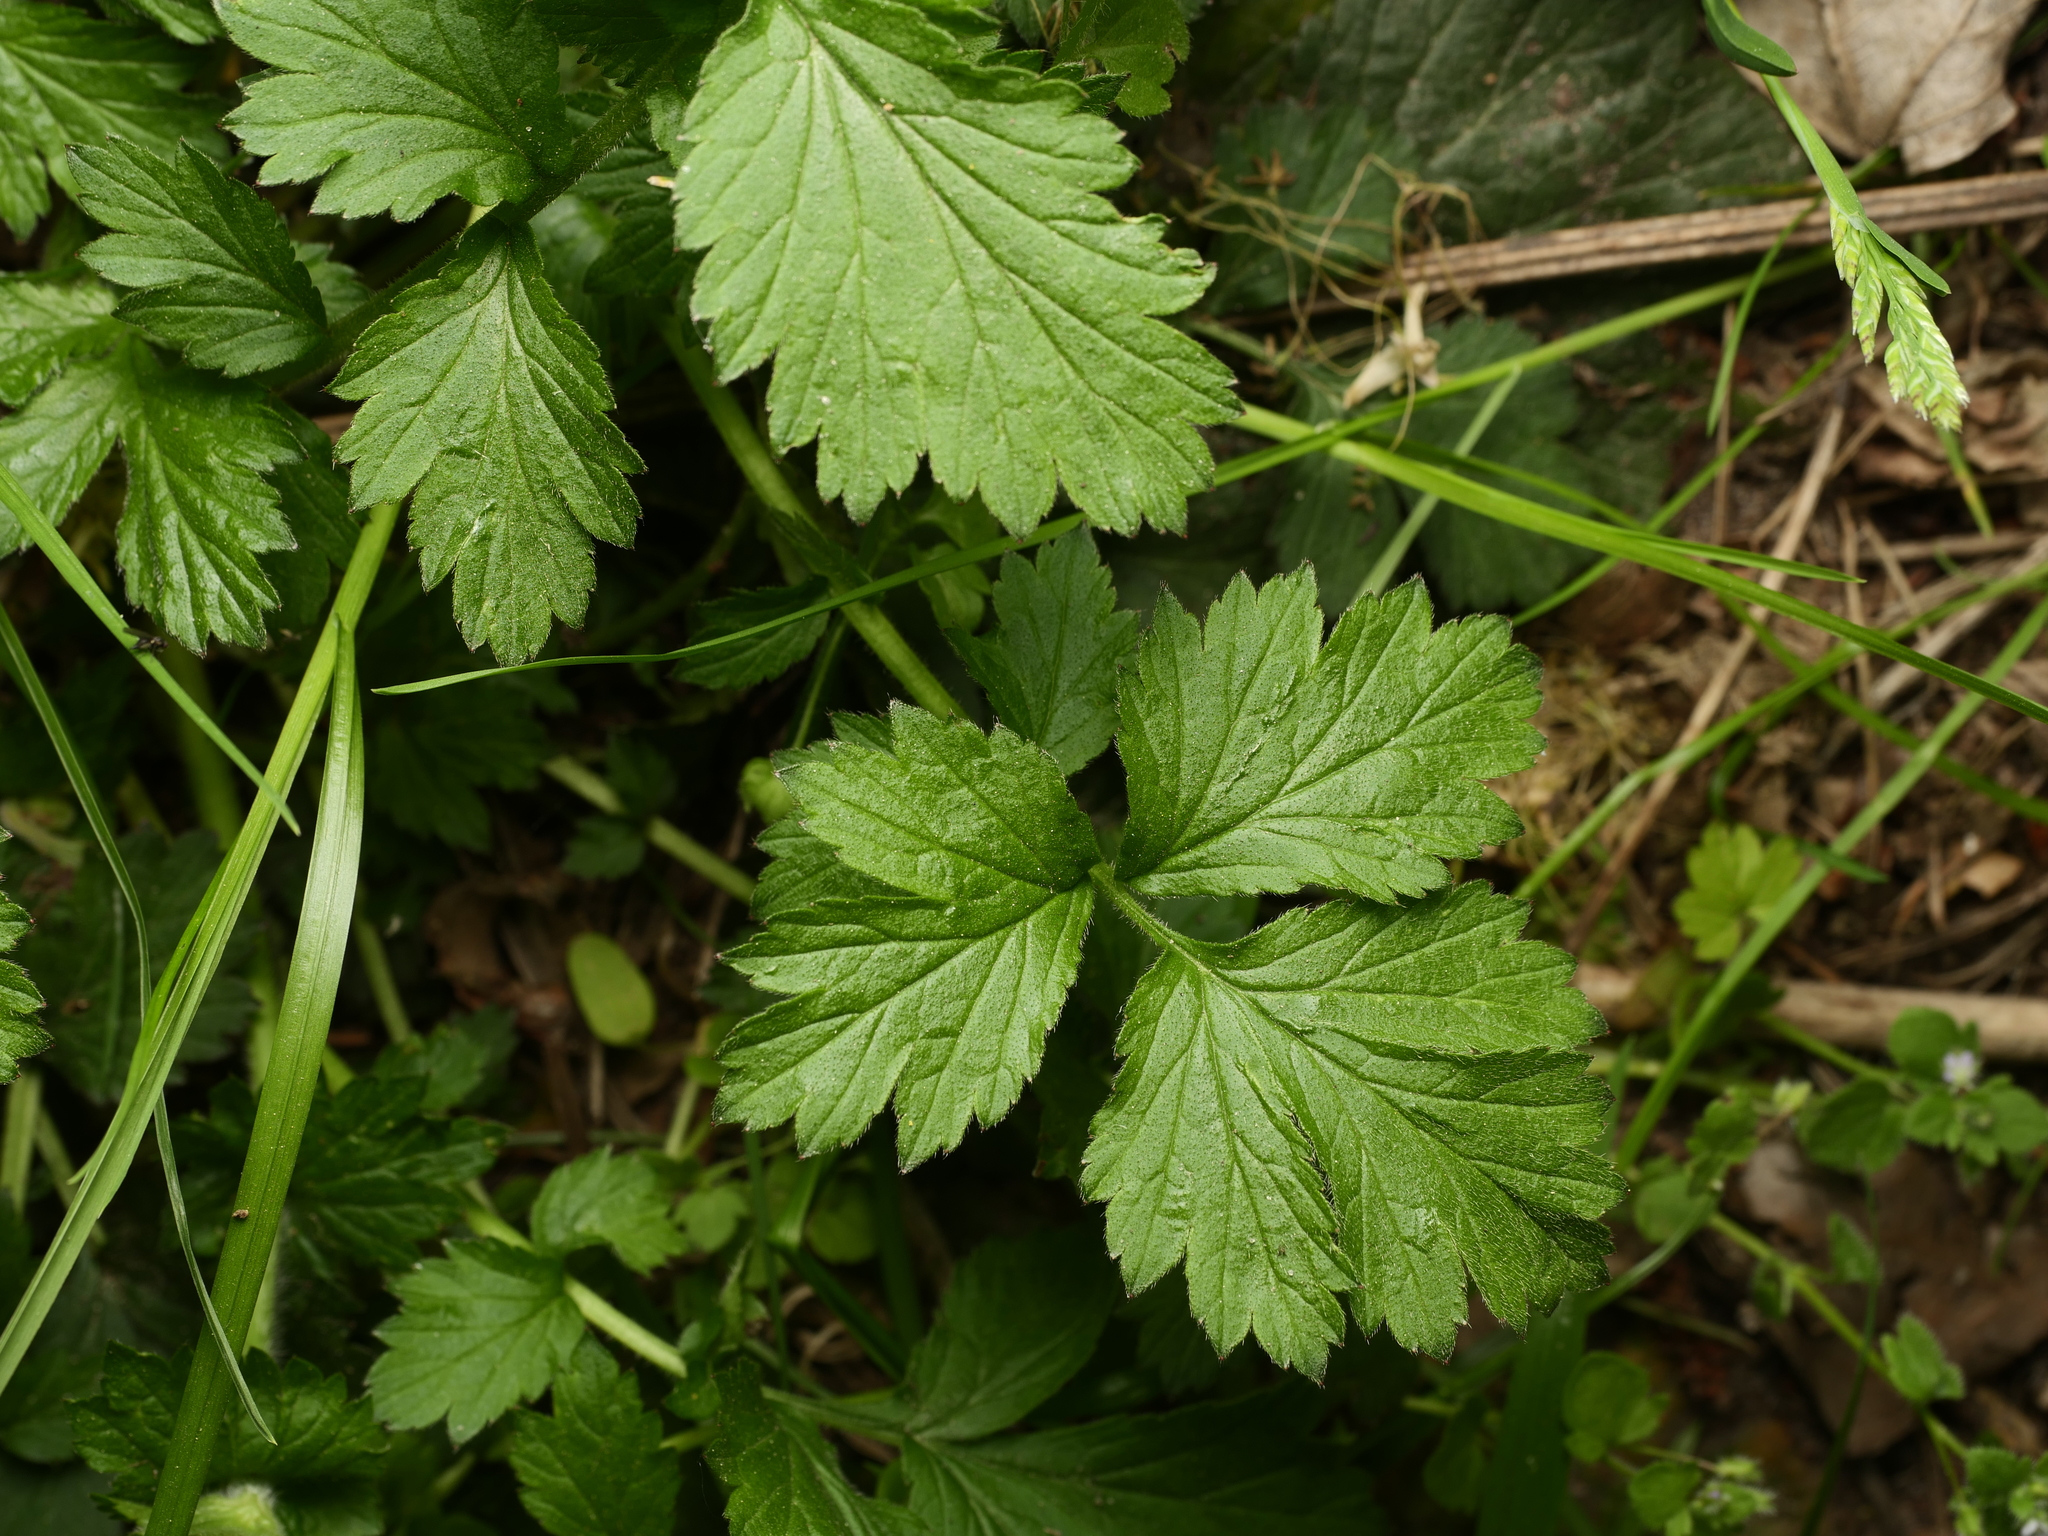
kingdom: Plantae
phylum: Tracheophyta
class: Magnoliopsida
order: Rosales
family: Rosaceae
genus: Geum
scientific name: Geum urbanum
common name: Wood avens
